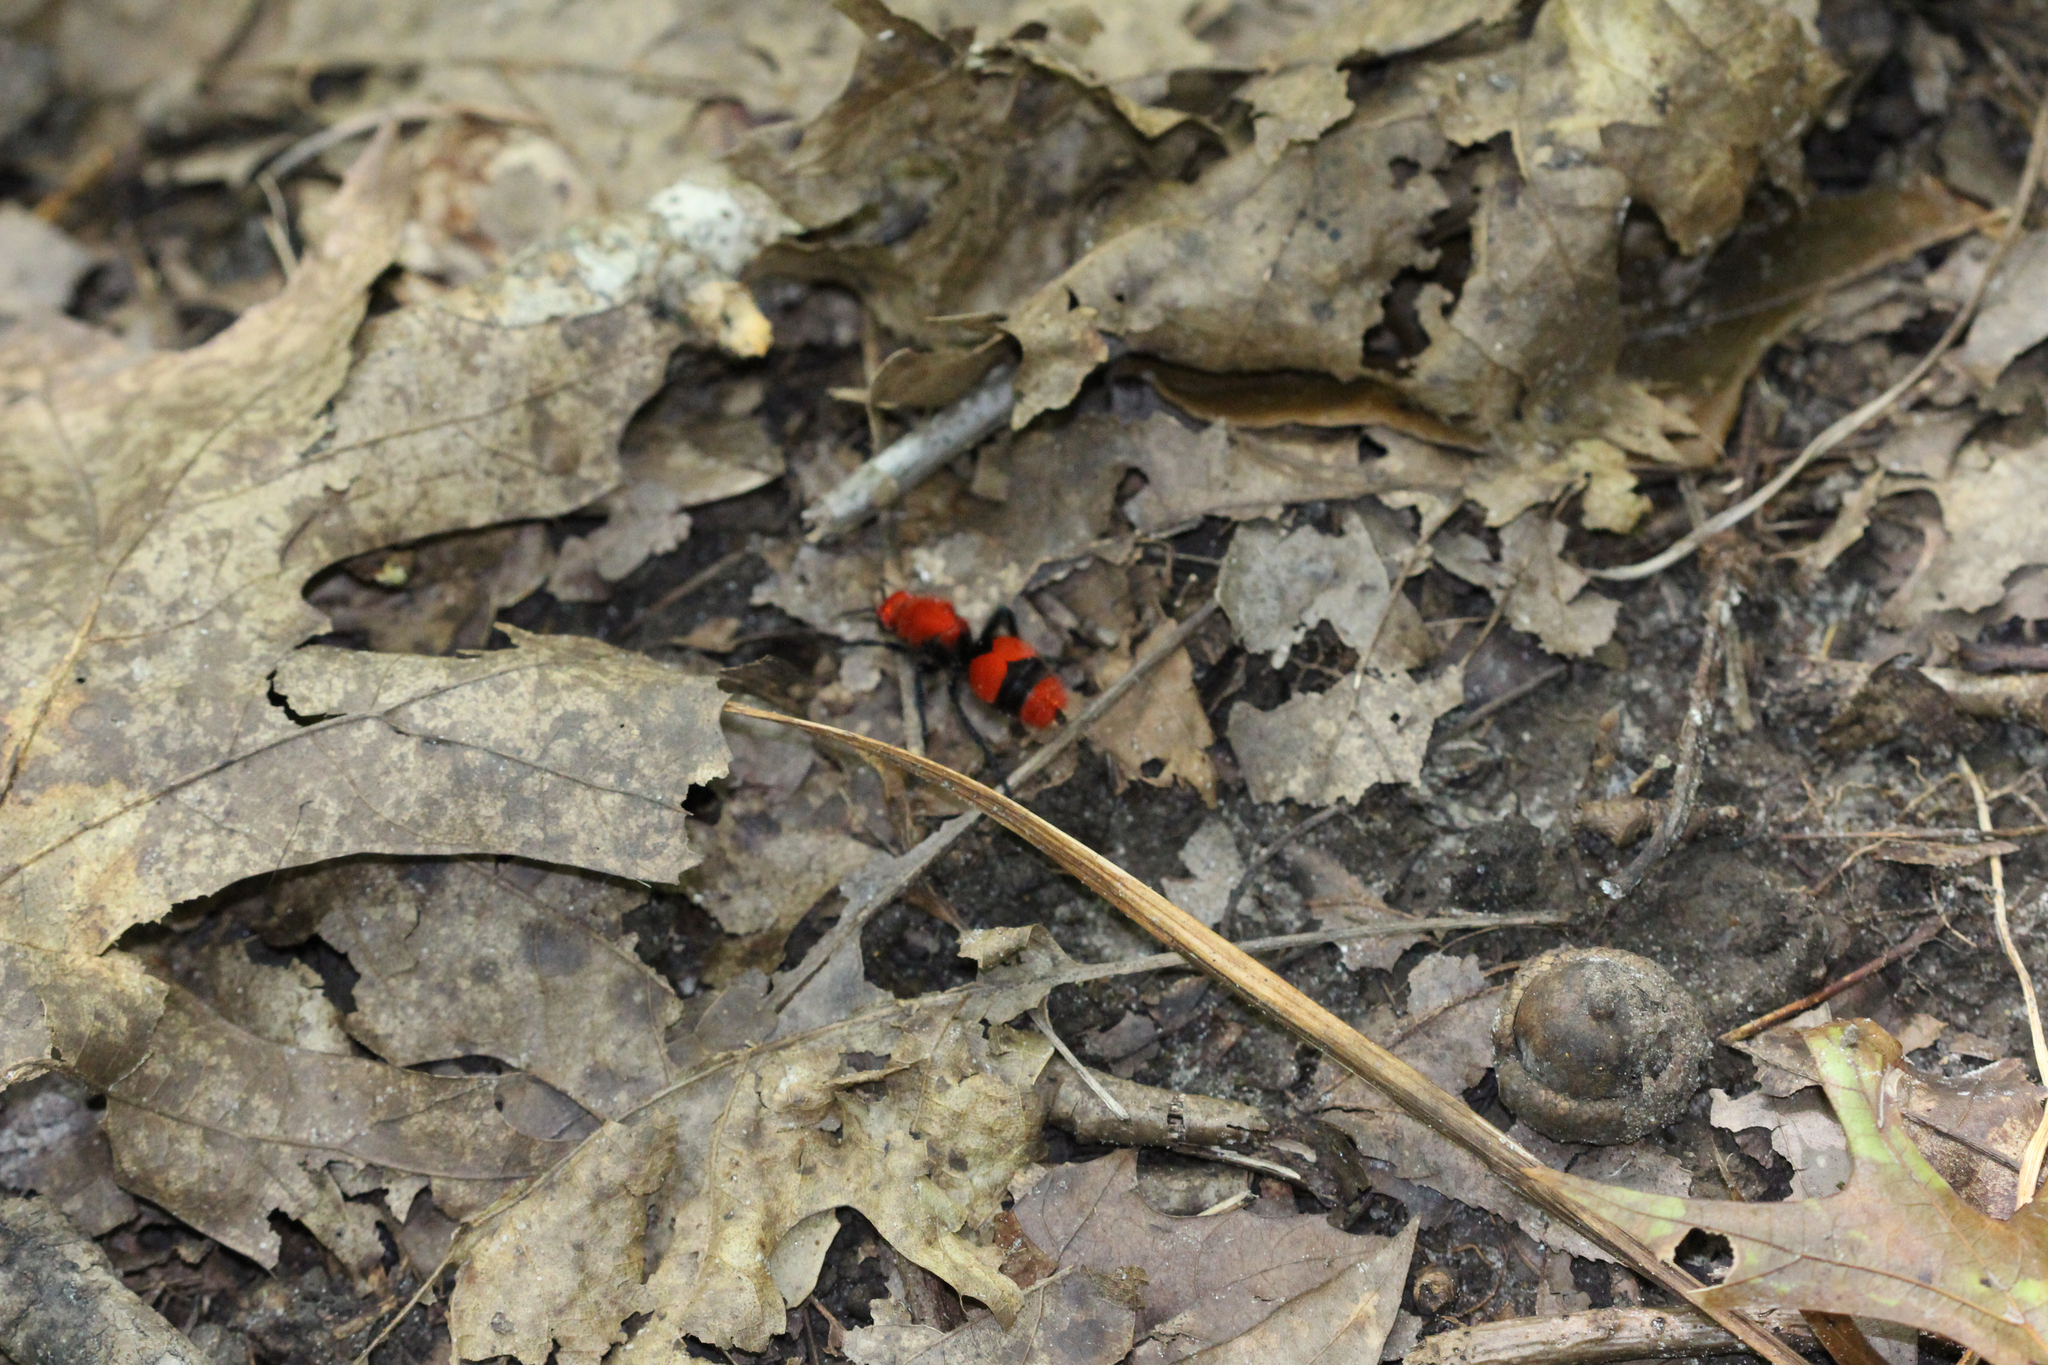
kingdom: Animalia
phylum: Arthropoda
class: Insecta
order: Hymenoptera
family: Mutillidae
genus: Dasymutilla
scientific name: Dasymutilla occidentalis
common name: Common eastern velvet ant
